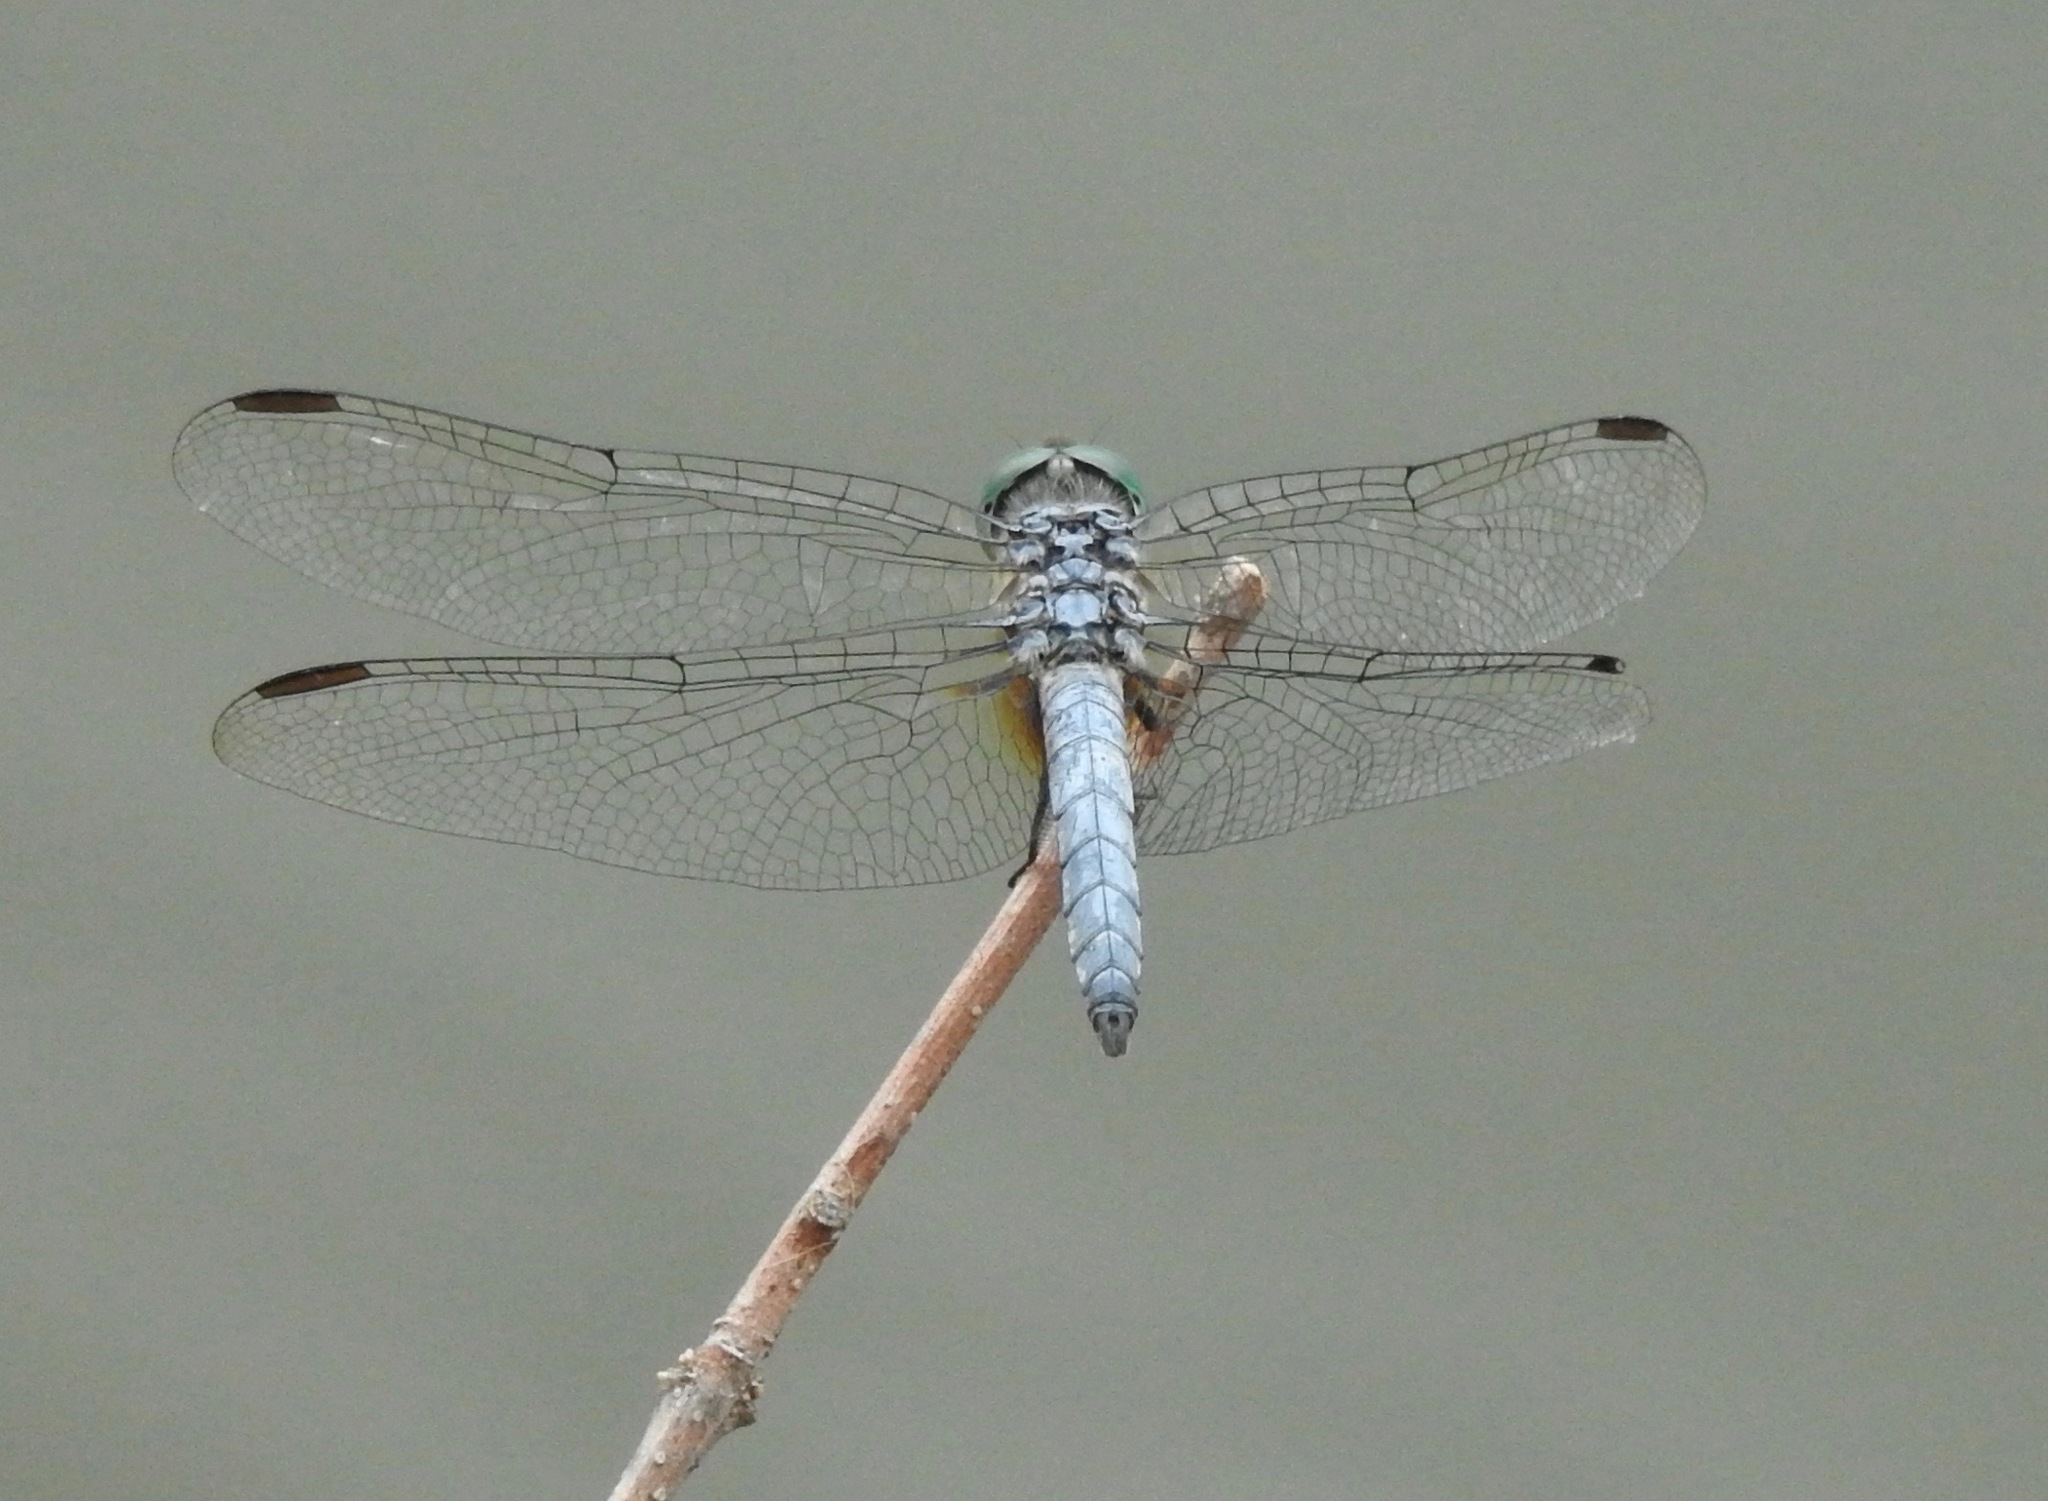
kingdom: Animalia
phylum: Arthropoda
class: Insecta
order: Odonata
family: Libellulidae
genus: Pachydiplax
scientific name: Pachydiplax longipennis
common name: Blue dasher
